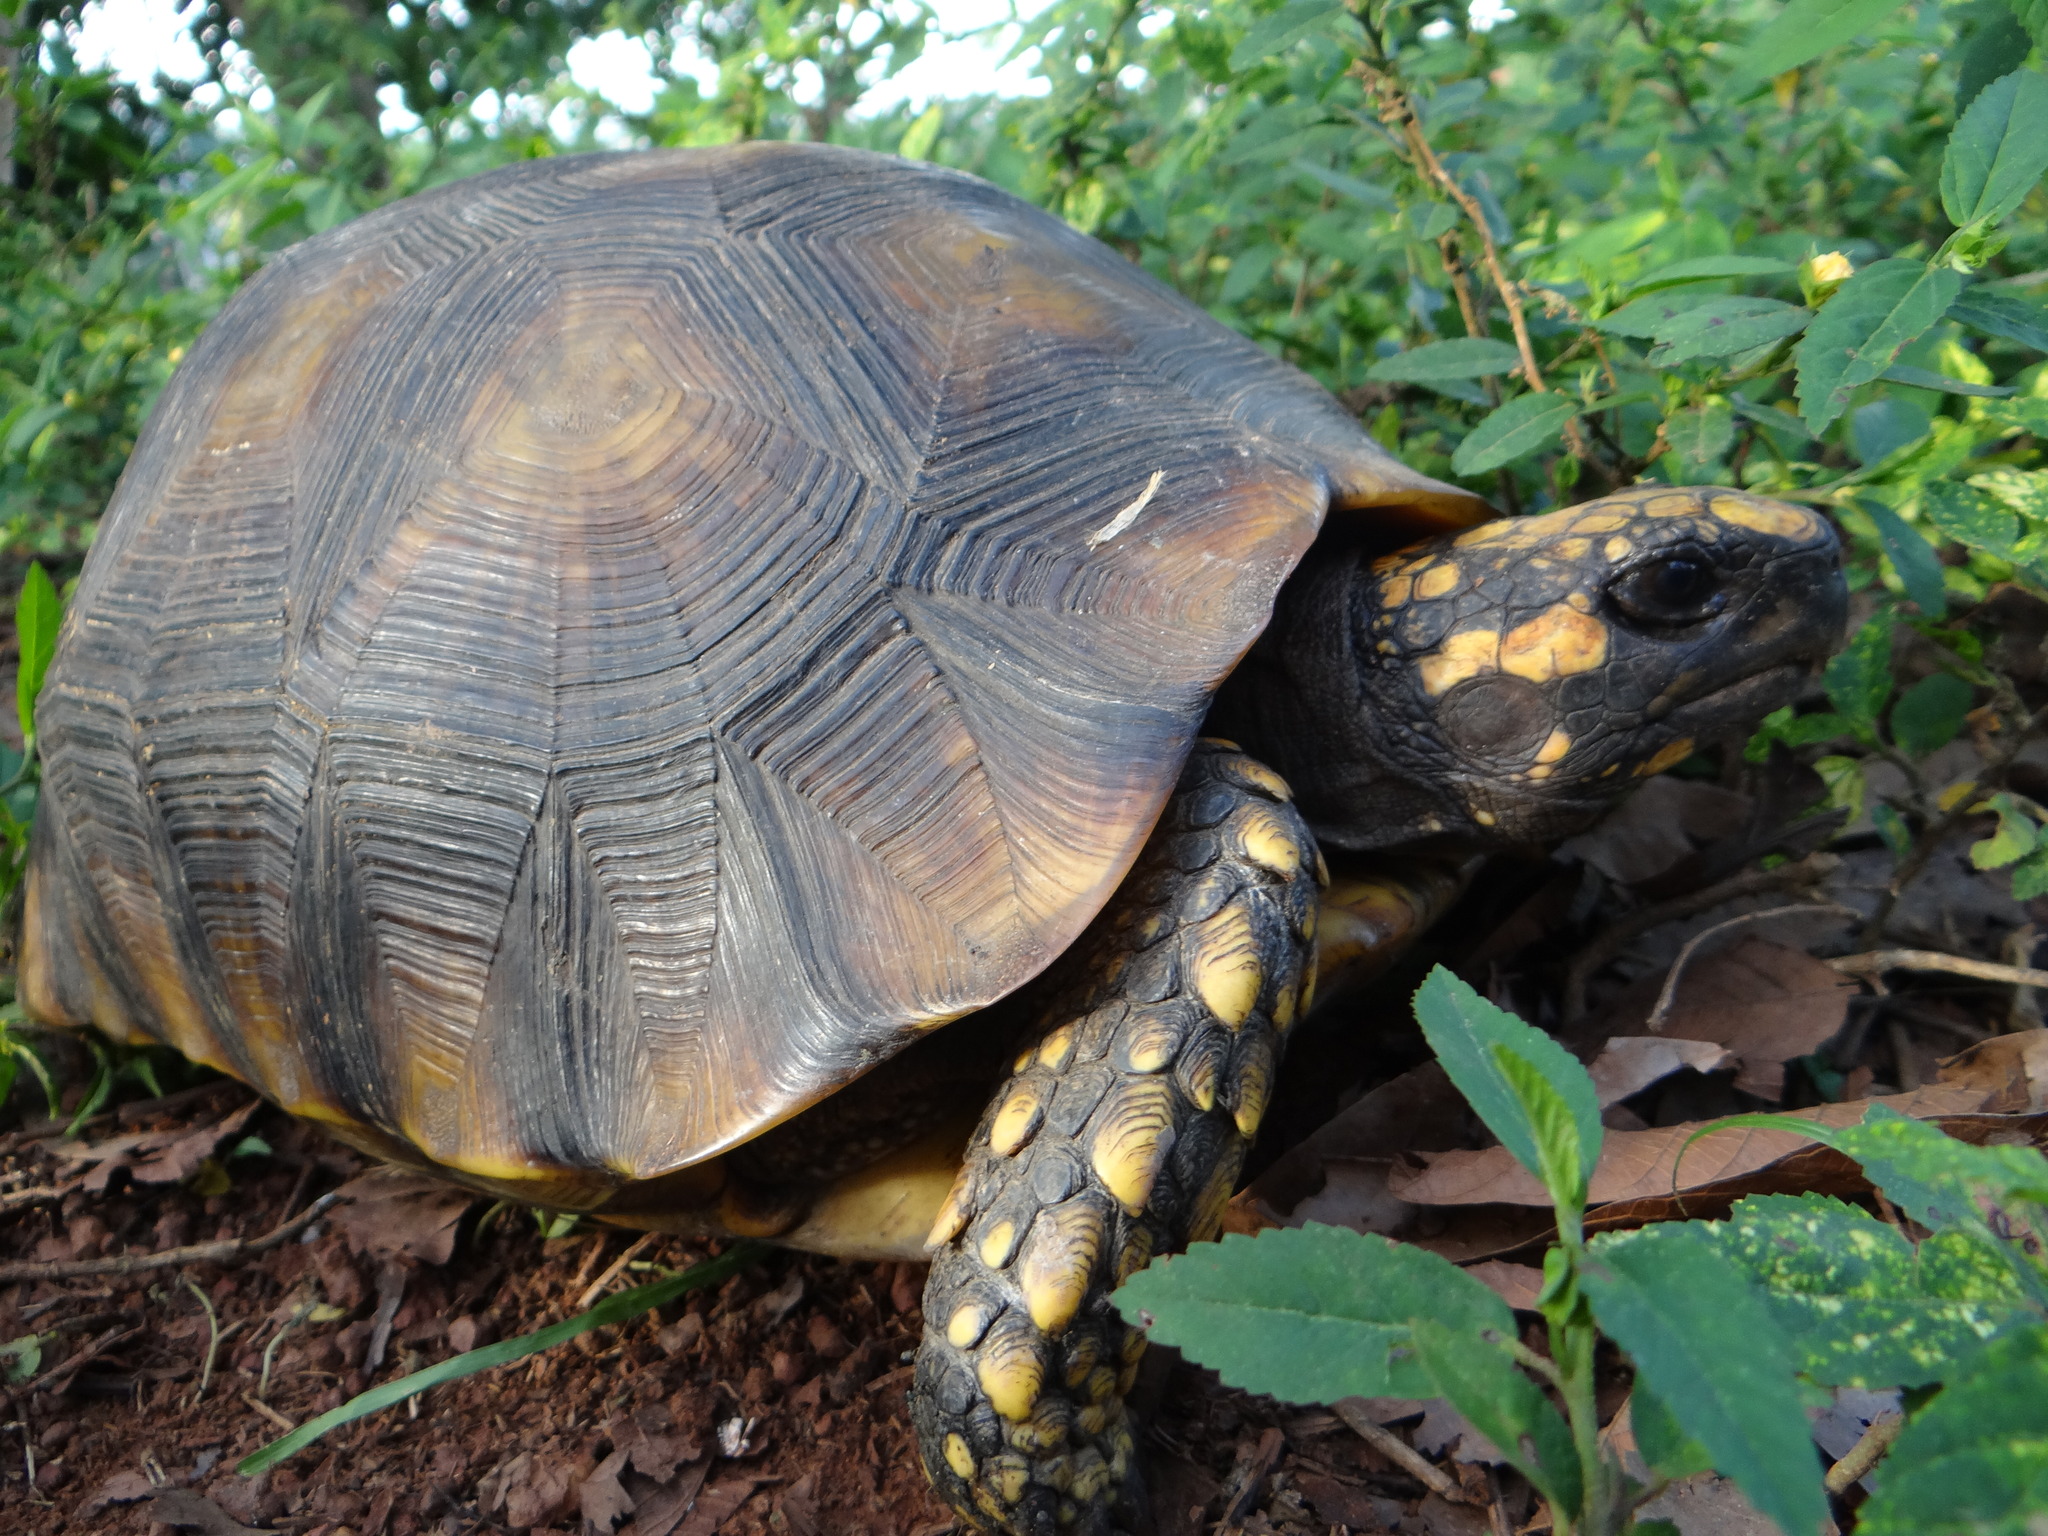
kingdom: Animalia
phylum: Chordata
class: Testudines
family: Testudinidae
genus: Chelonoidis
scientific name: Chelonoidis denticulatus
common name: Yellow-footed tortoise
